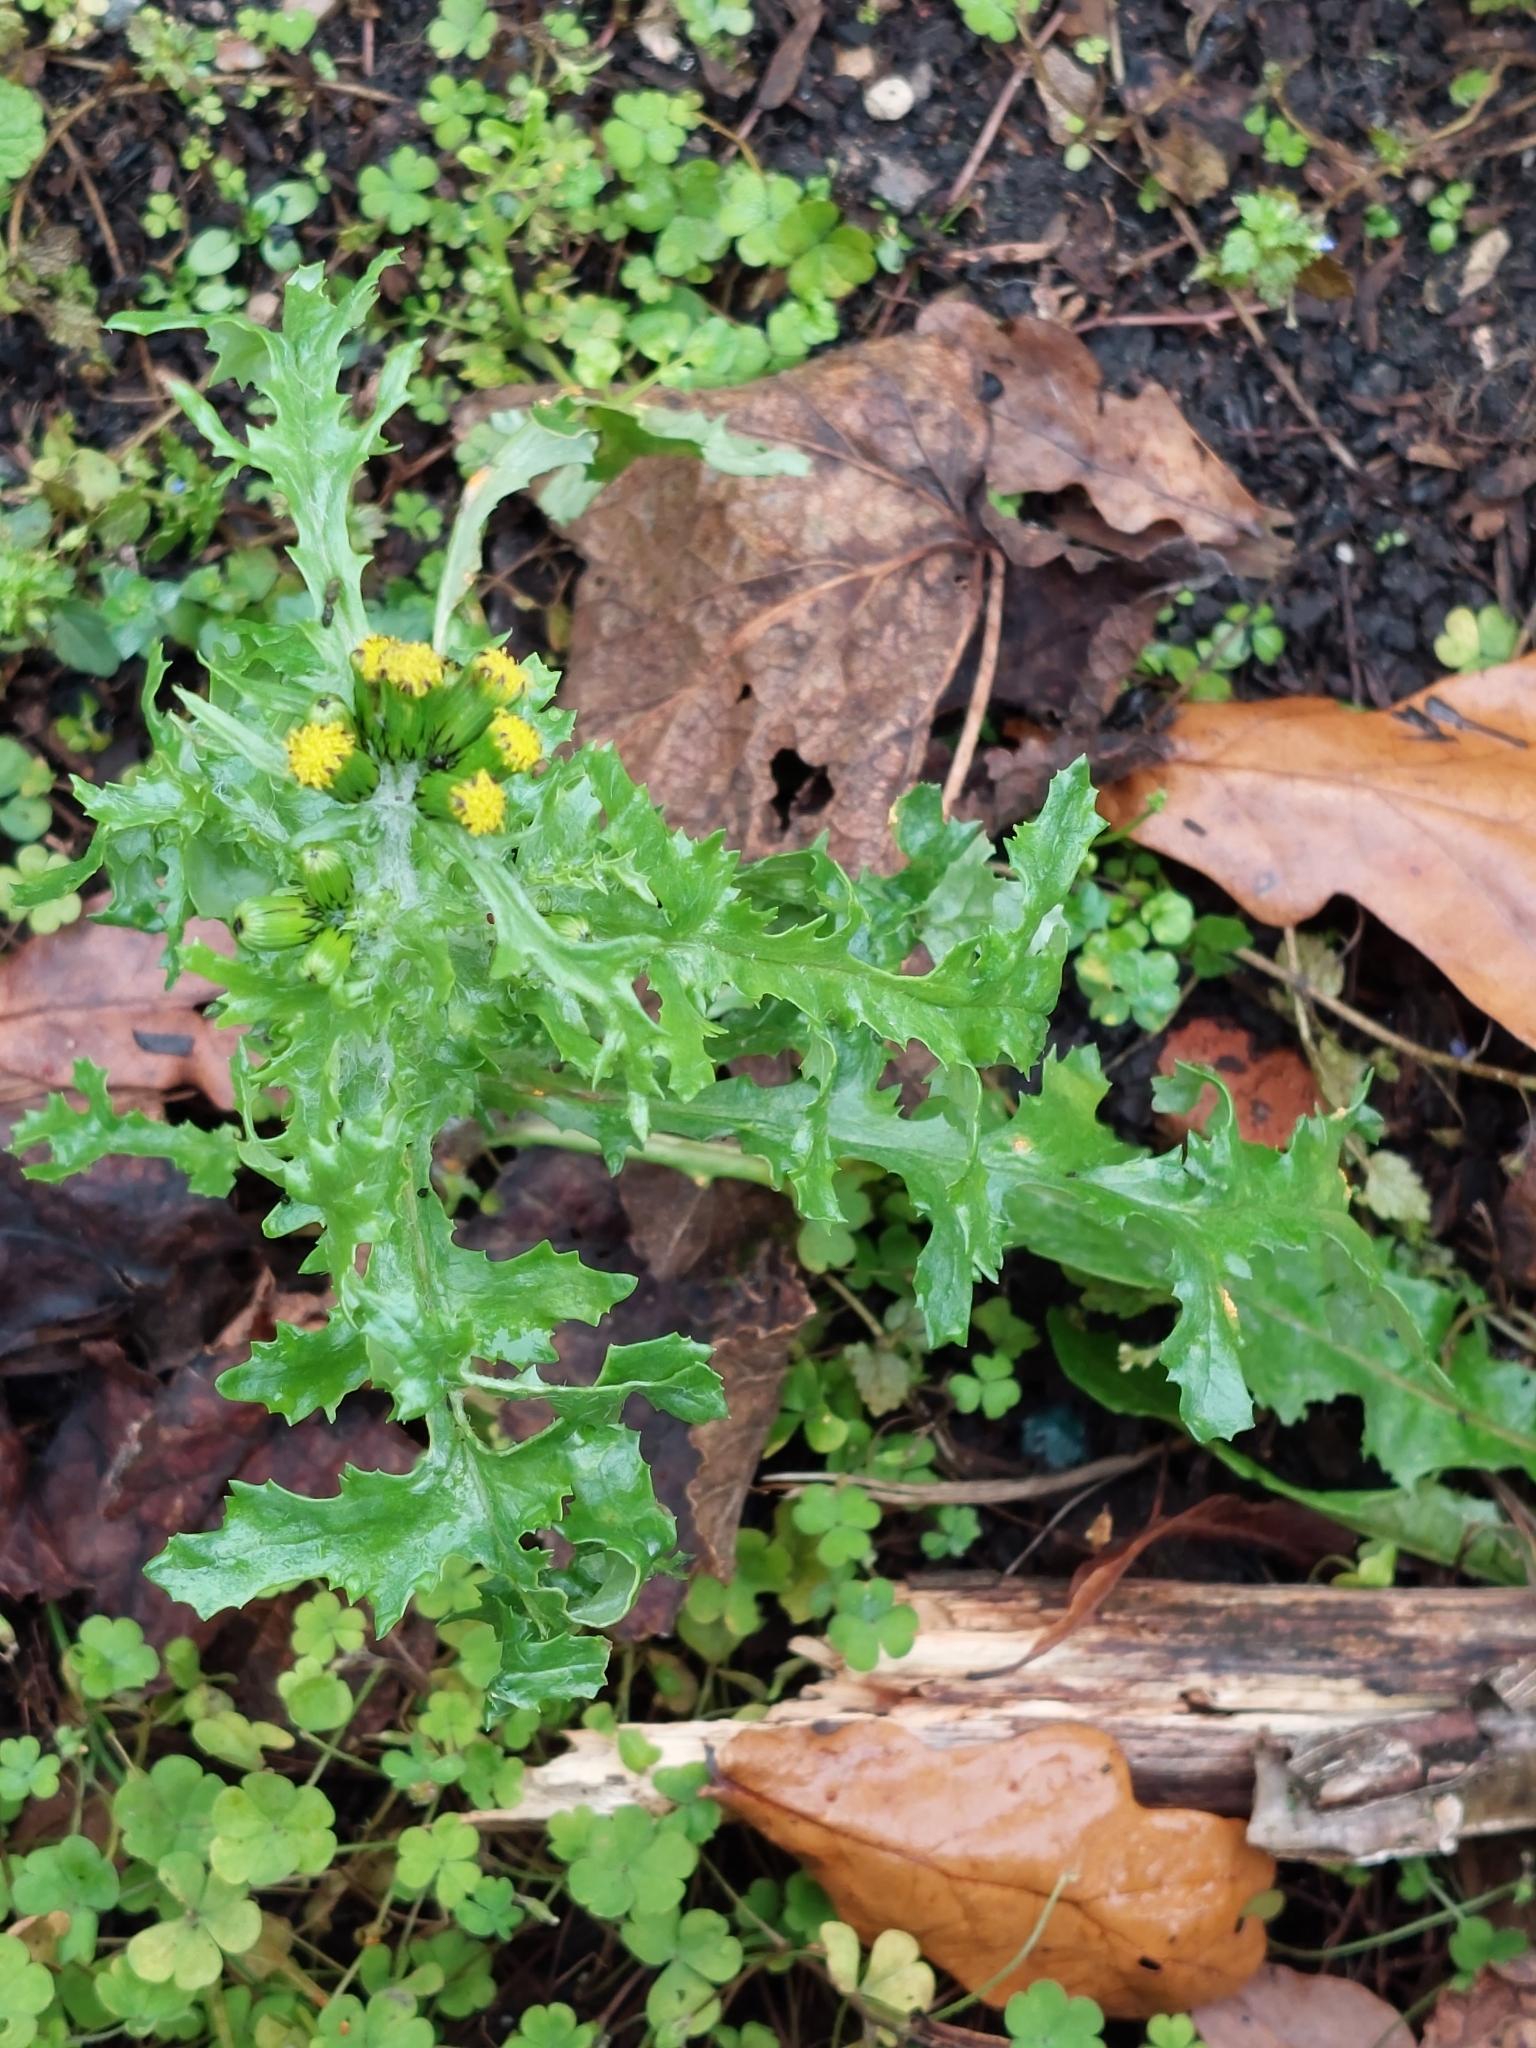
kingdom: Plantae
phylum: Tracheophyta
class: Magnoliopsida
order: Asterales
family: Asteraceae
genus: Senecio
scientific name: Senecio vulgaris
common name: Old-man-in-the-spring
